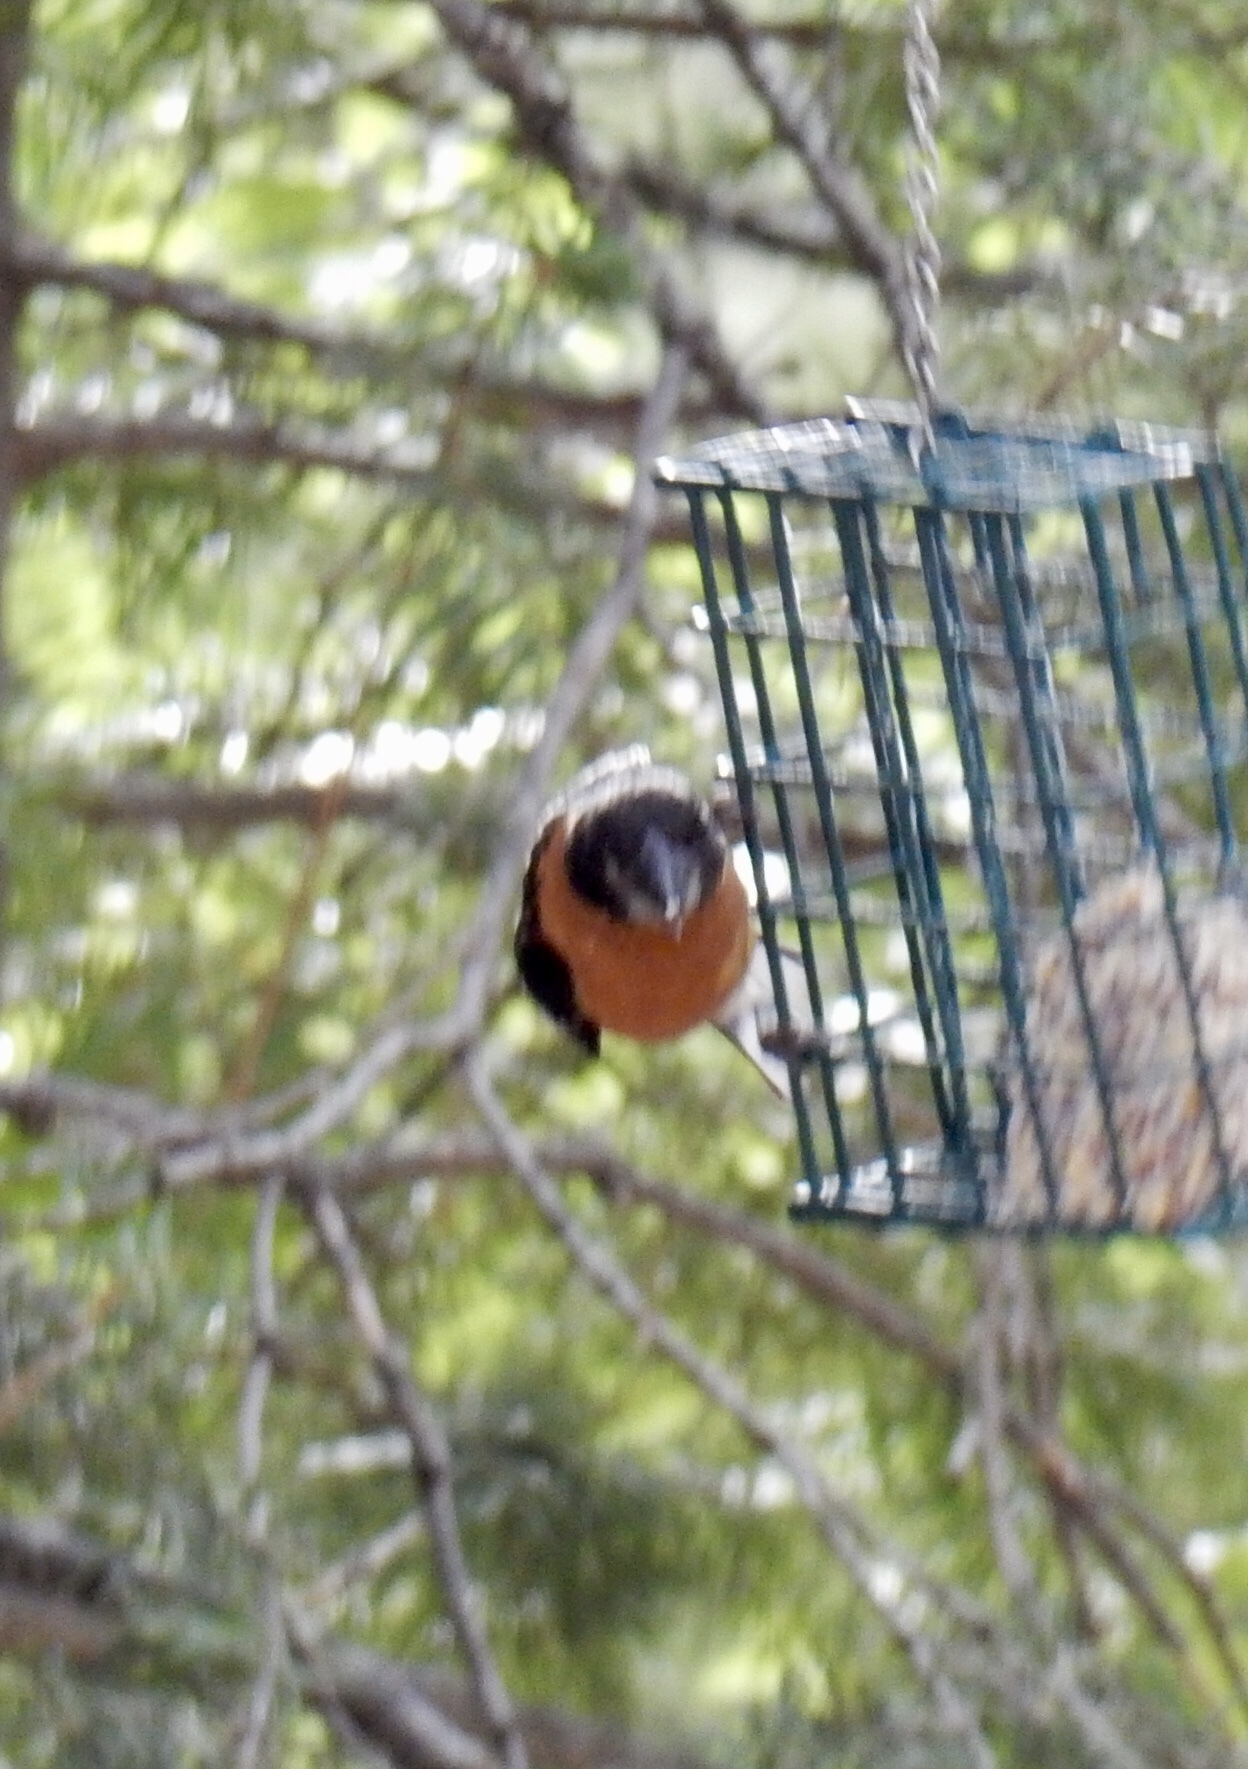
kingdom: Animalia
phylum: Chordata
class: Aves
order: Passeriformes
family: Cardinalidae
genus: Pheucticus
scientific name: Pheucticus melanocephalus
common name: Black-headed grosbeak
